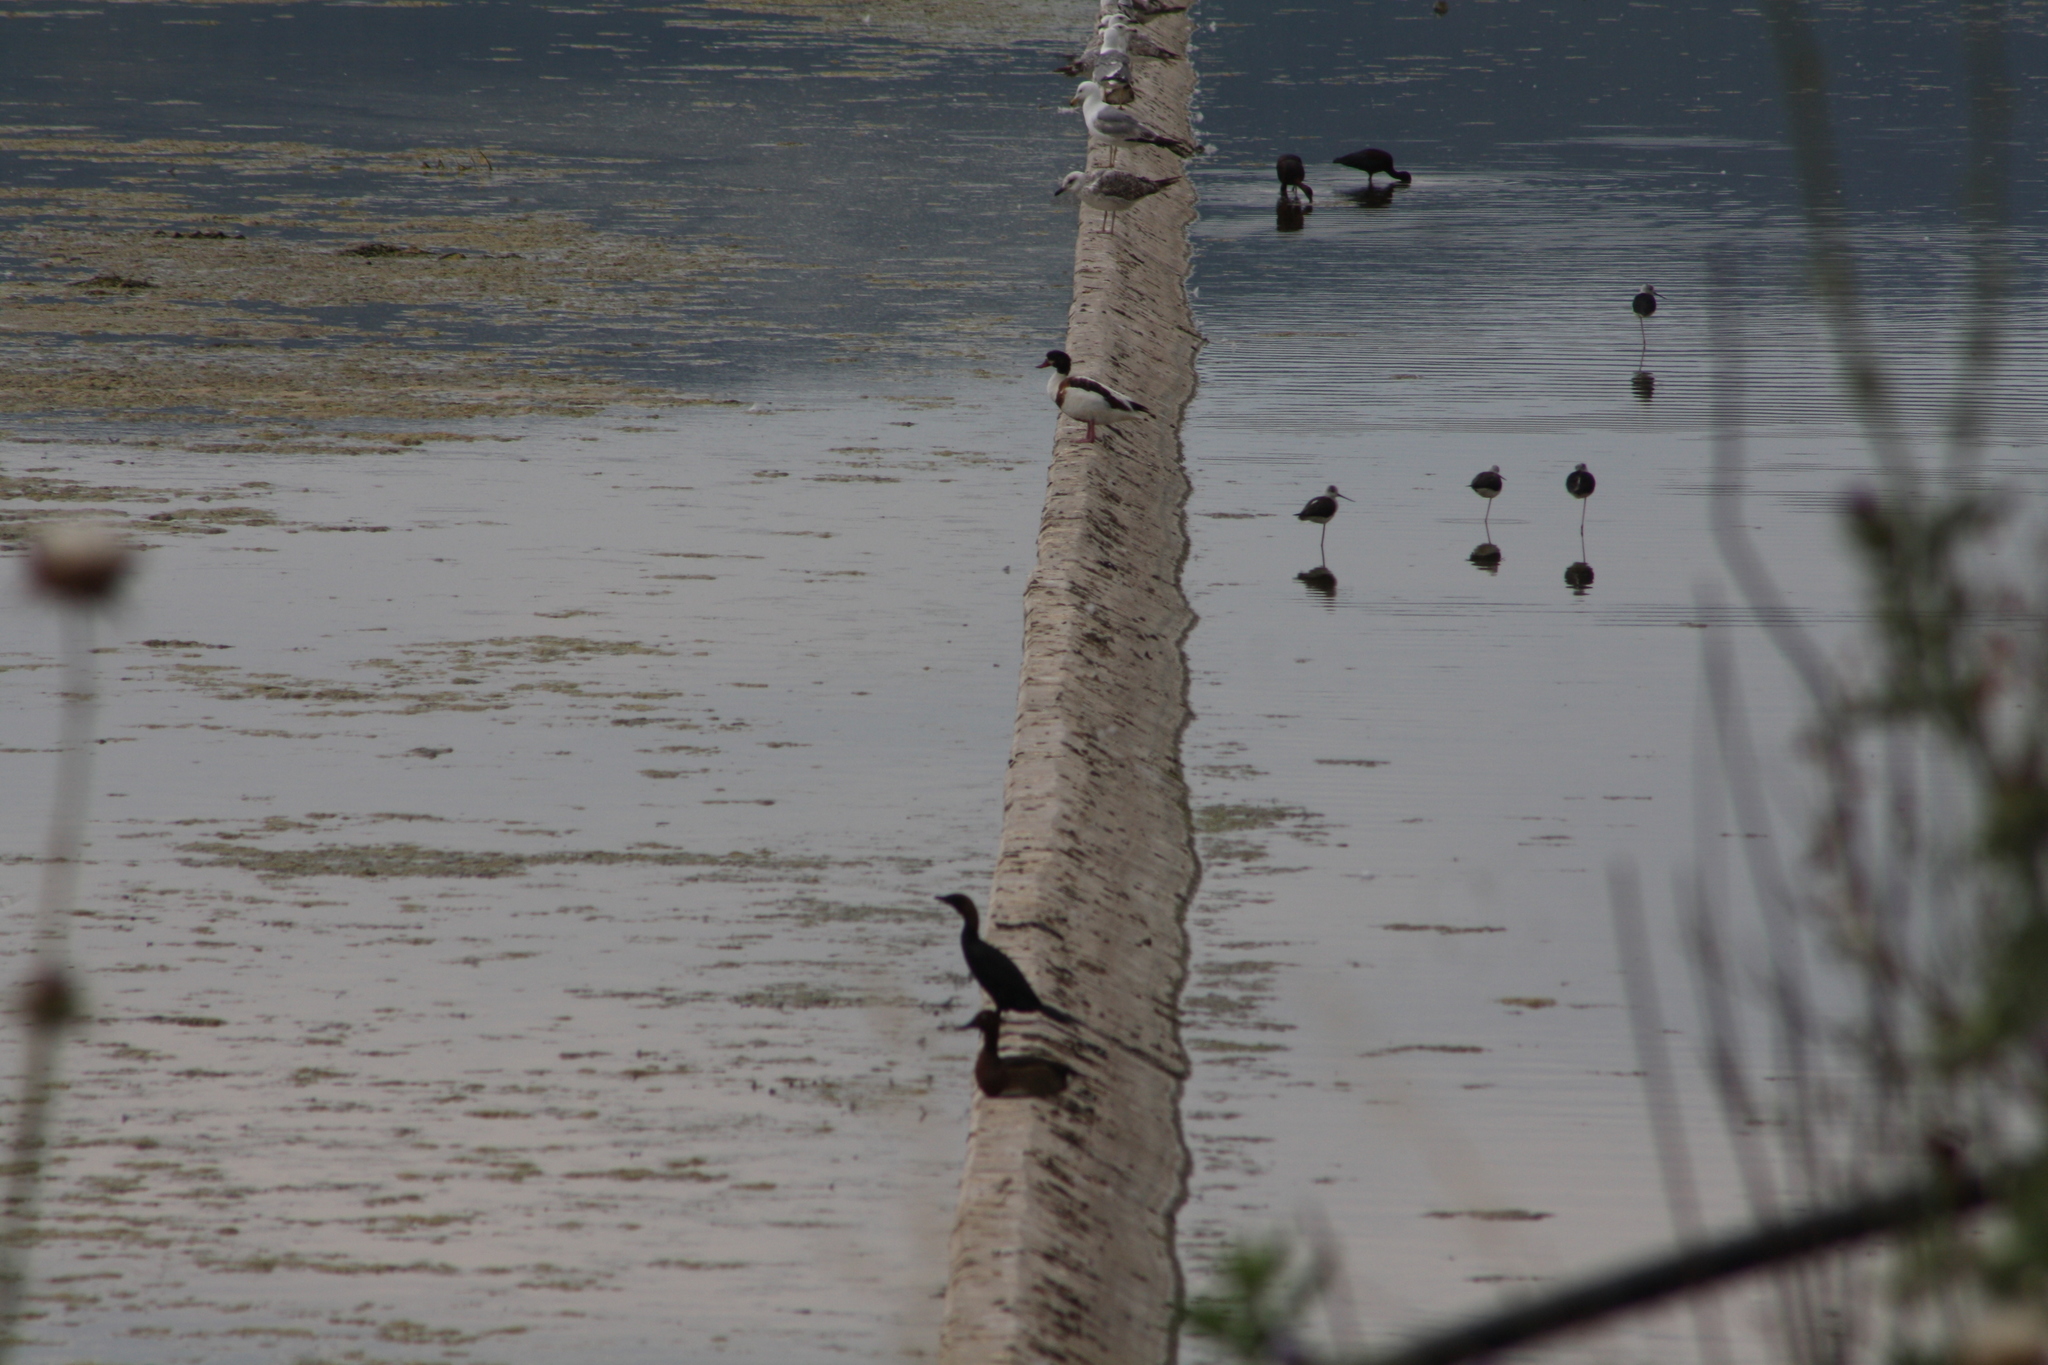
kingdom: Animalia
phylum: Chordata
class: Aves
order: Anseriformes
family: Anatidae
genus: Tadorna
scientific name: Tadorna tadorna
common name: Common shelduck
